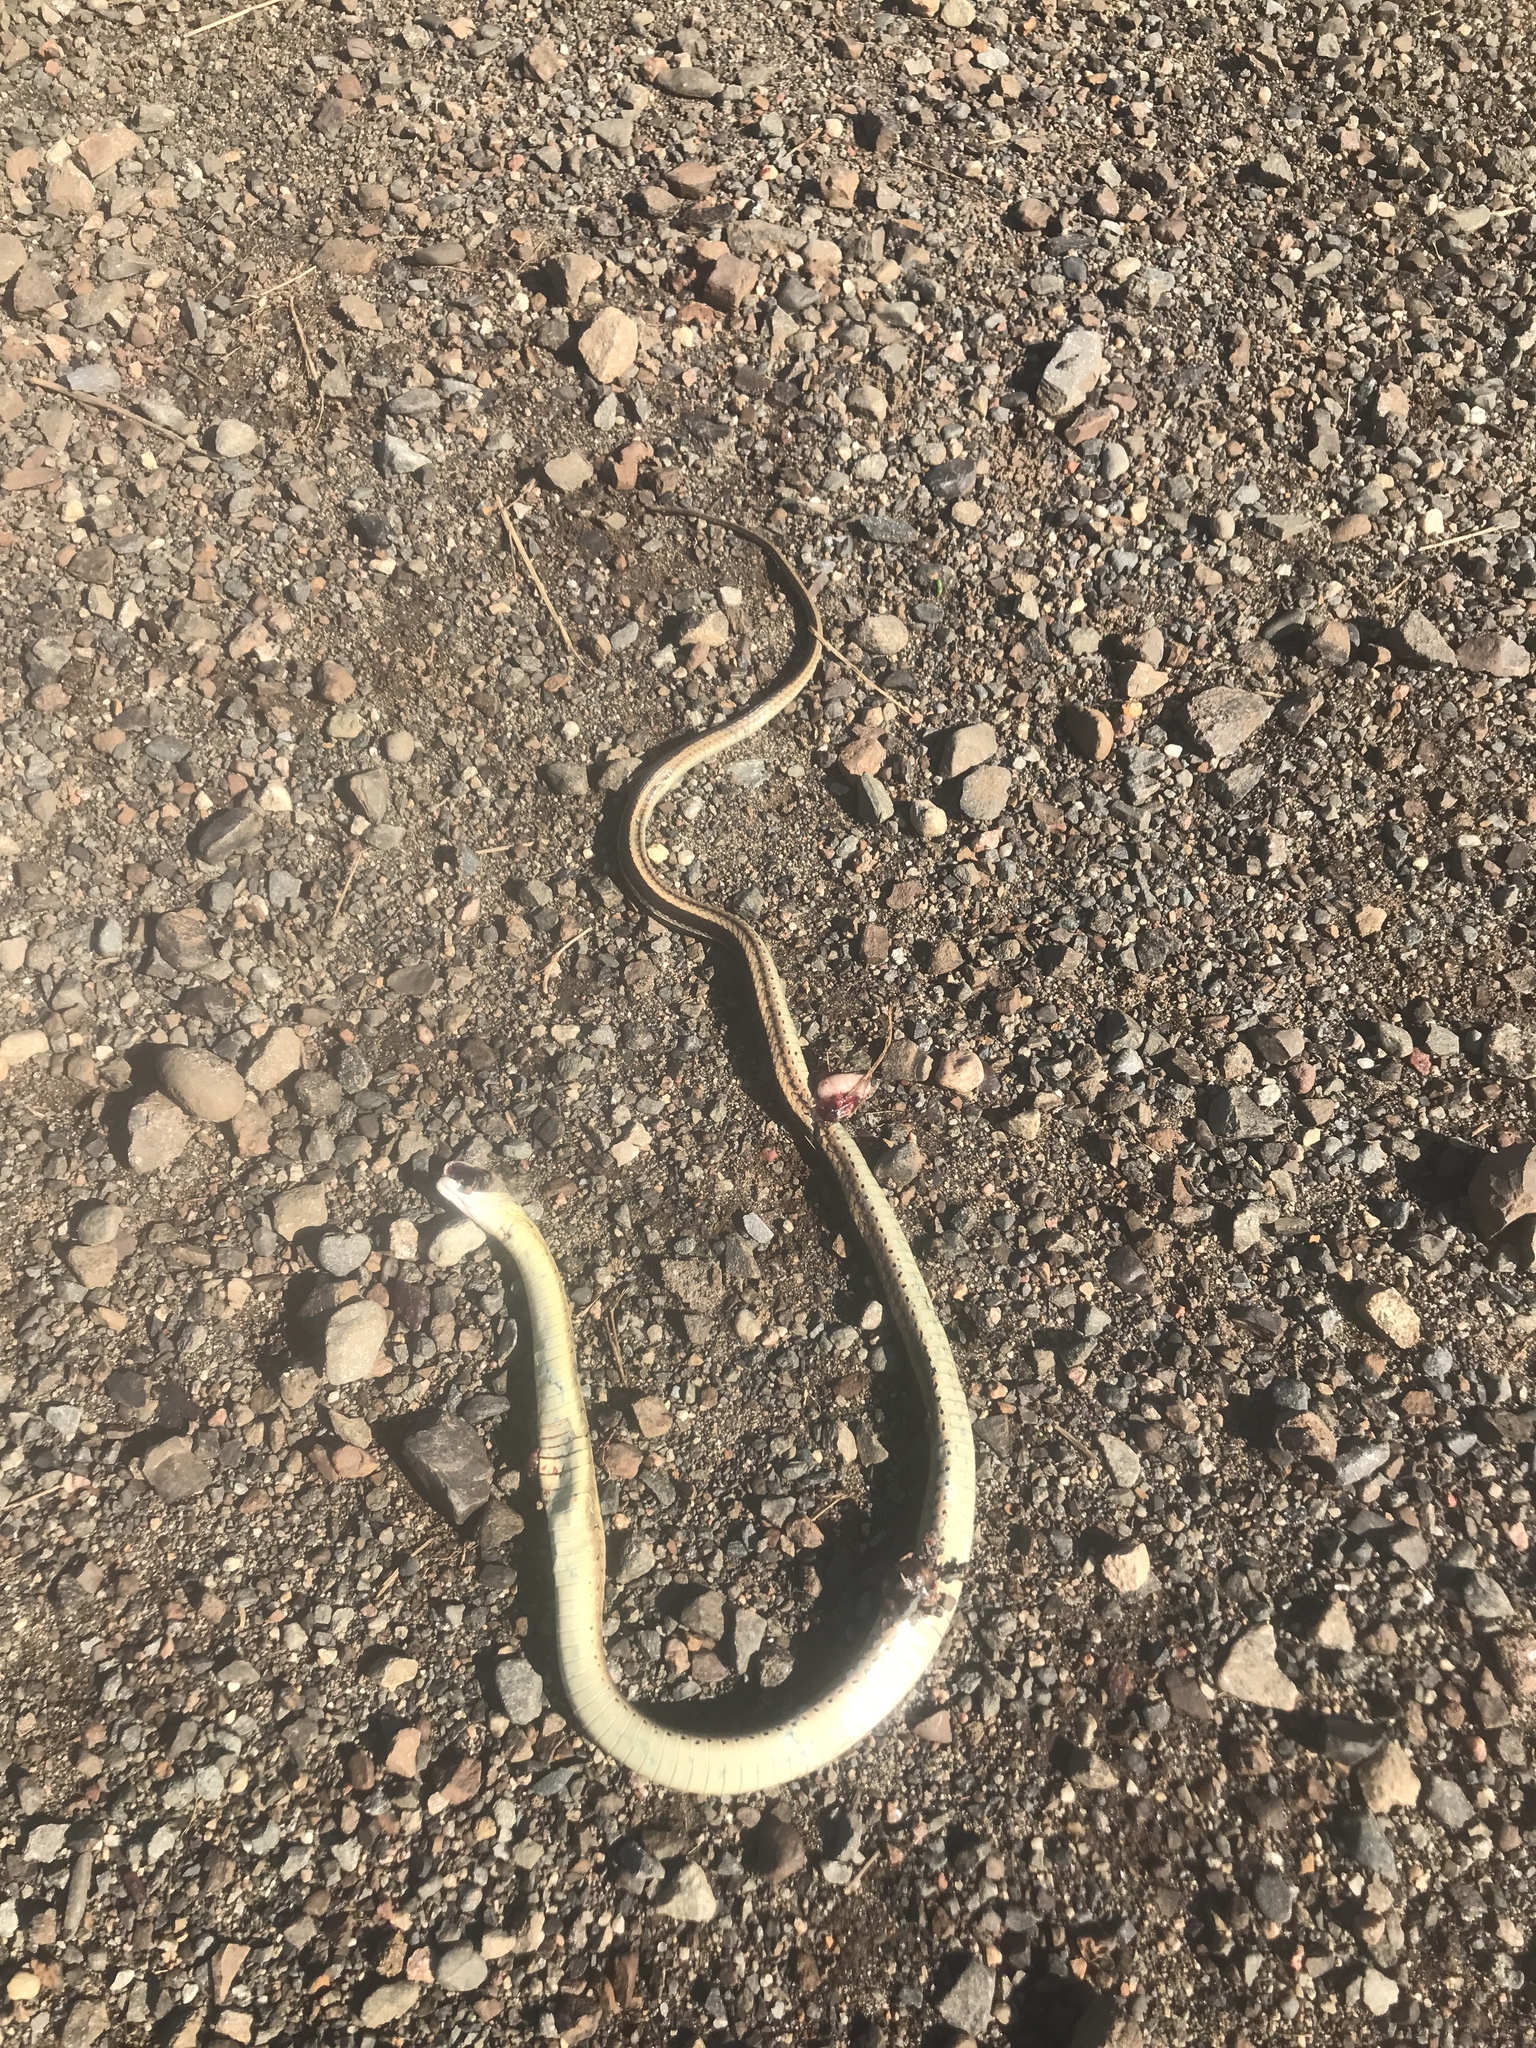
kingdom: Animalia
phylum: Chordata
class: Squamata
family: Colubridae
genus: Thamnophis
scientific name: Thamnophis sirtalis
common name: Common garter snake
